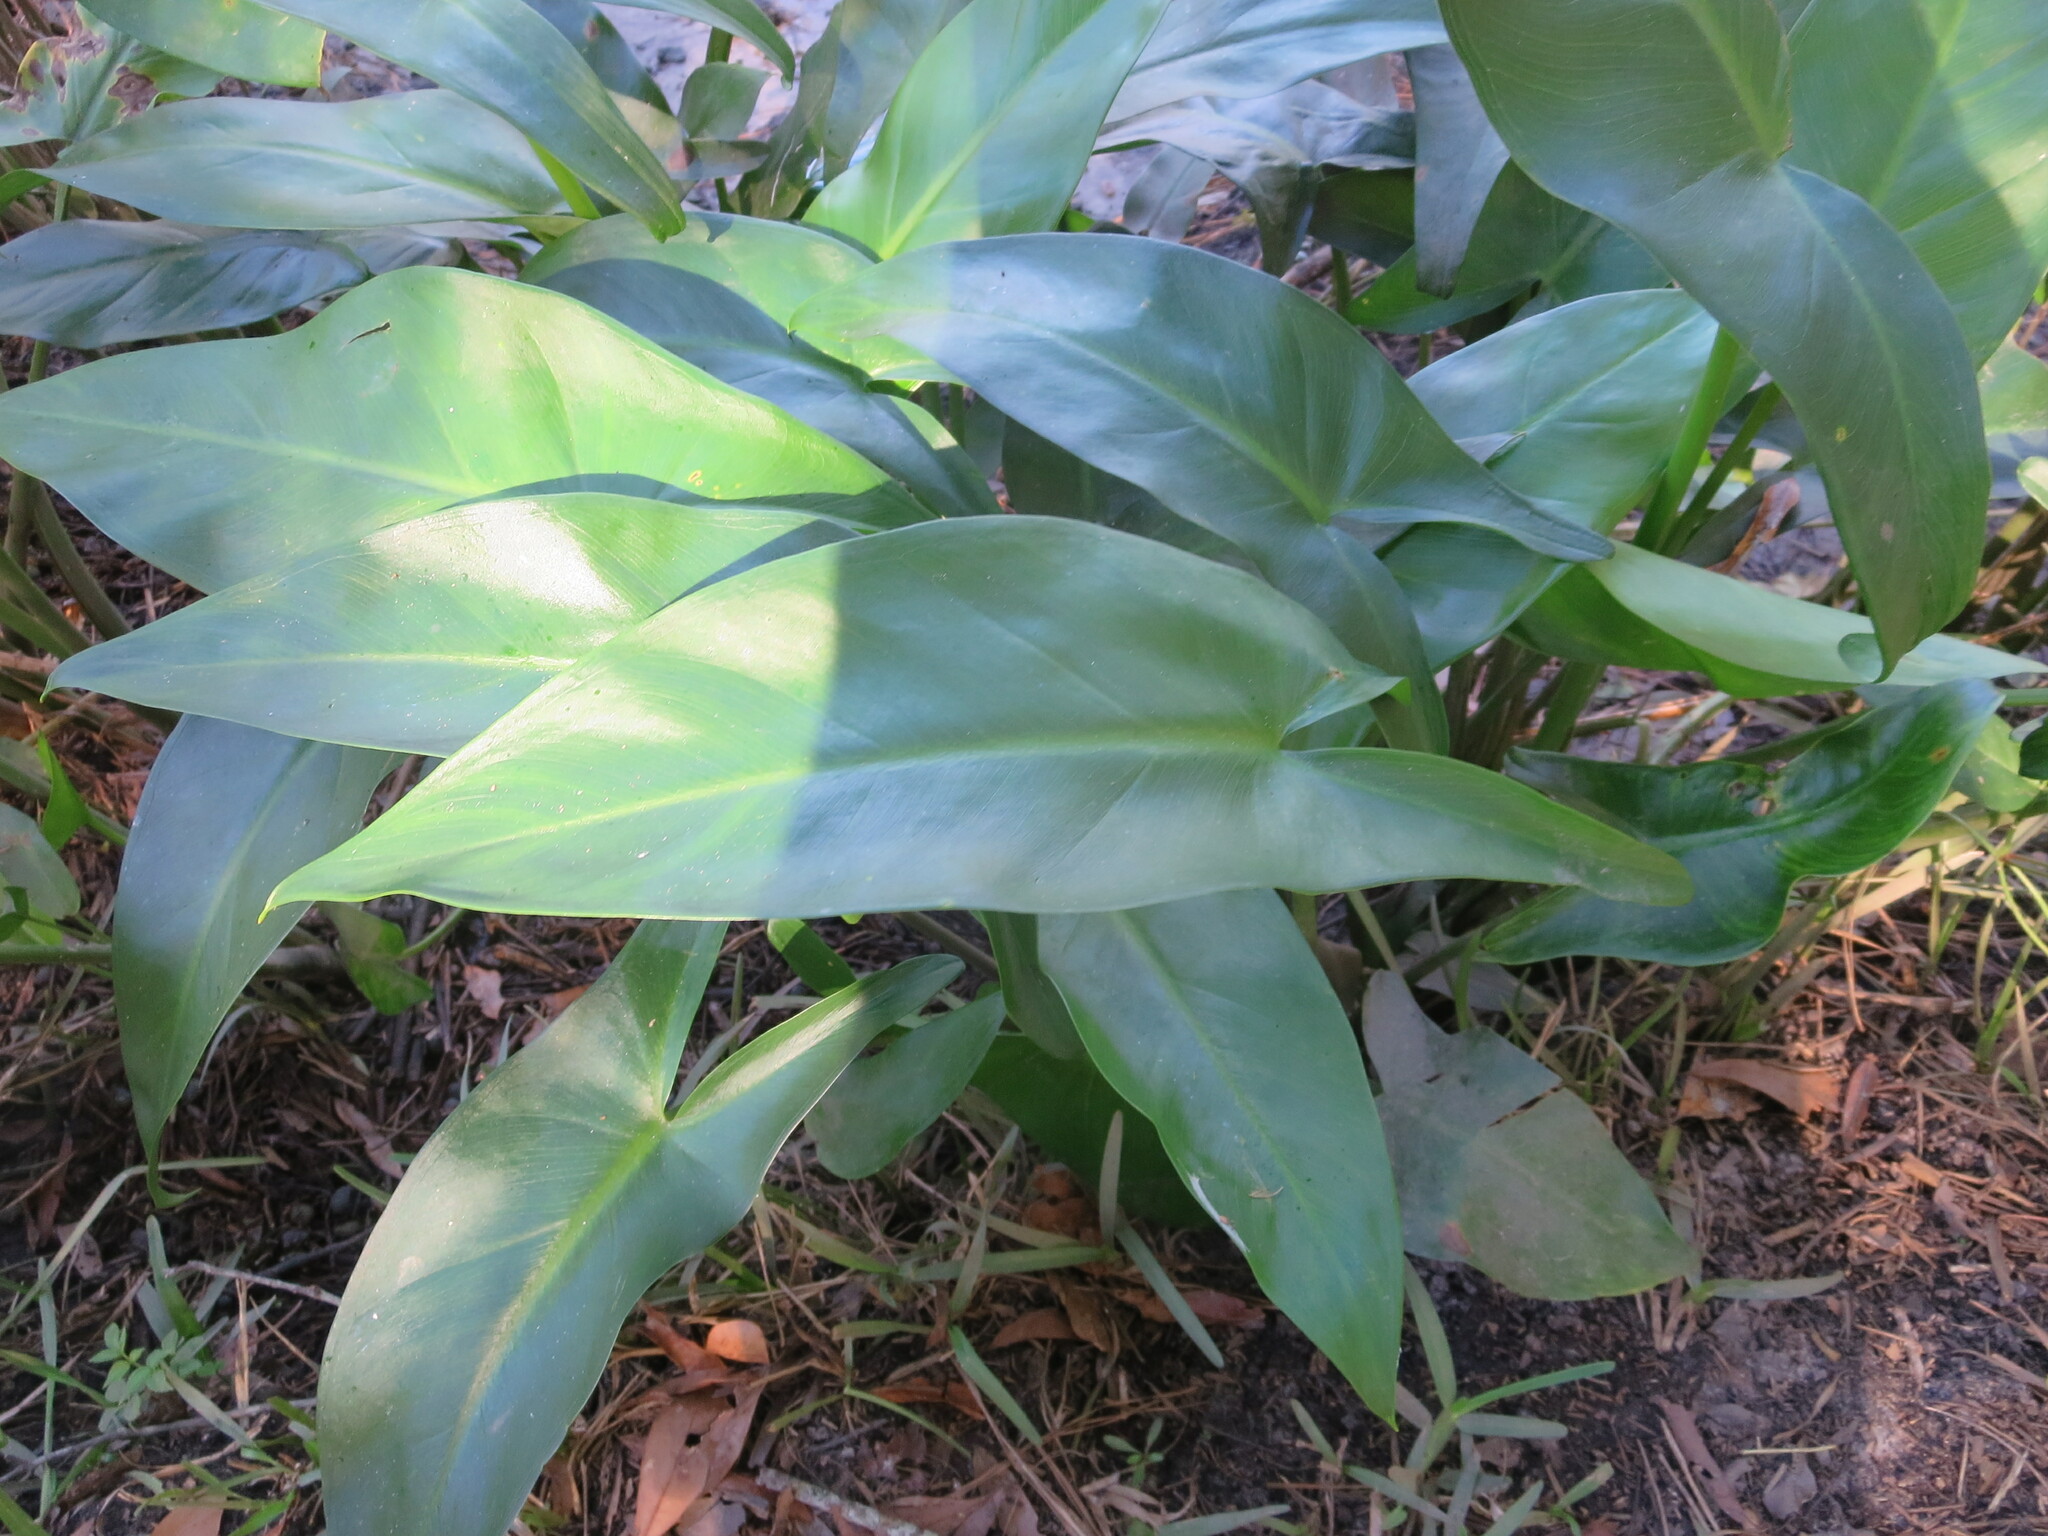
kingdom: Plantae
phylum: Tracheophyta
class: Liliopsida
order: Alismatales
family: Araceae
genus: Peltandra
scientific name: Peltandra virginica
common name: Arrow arum
